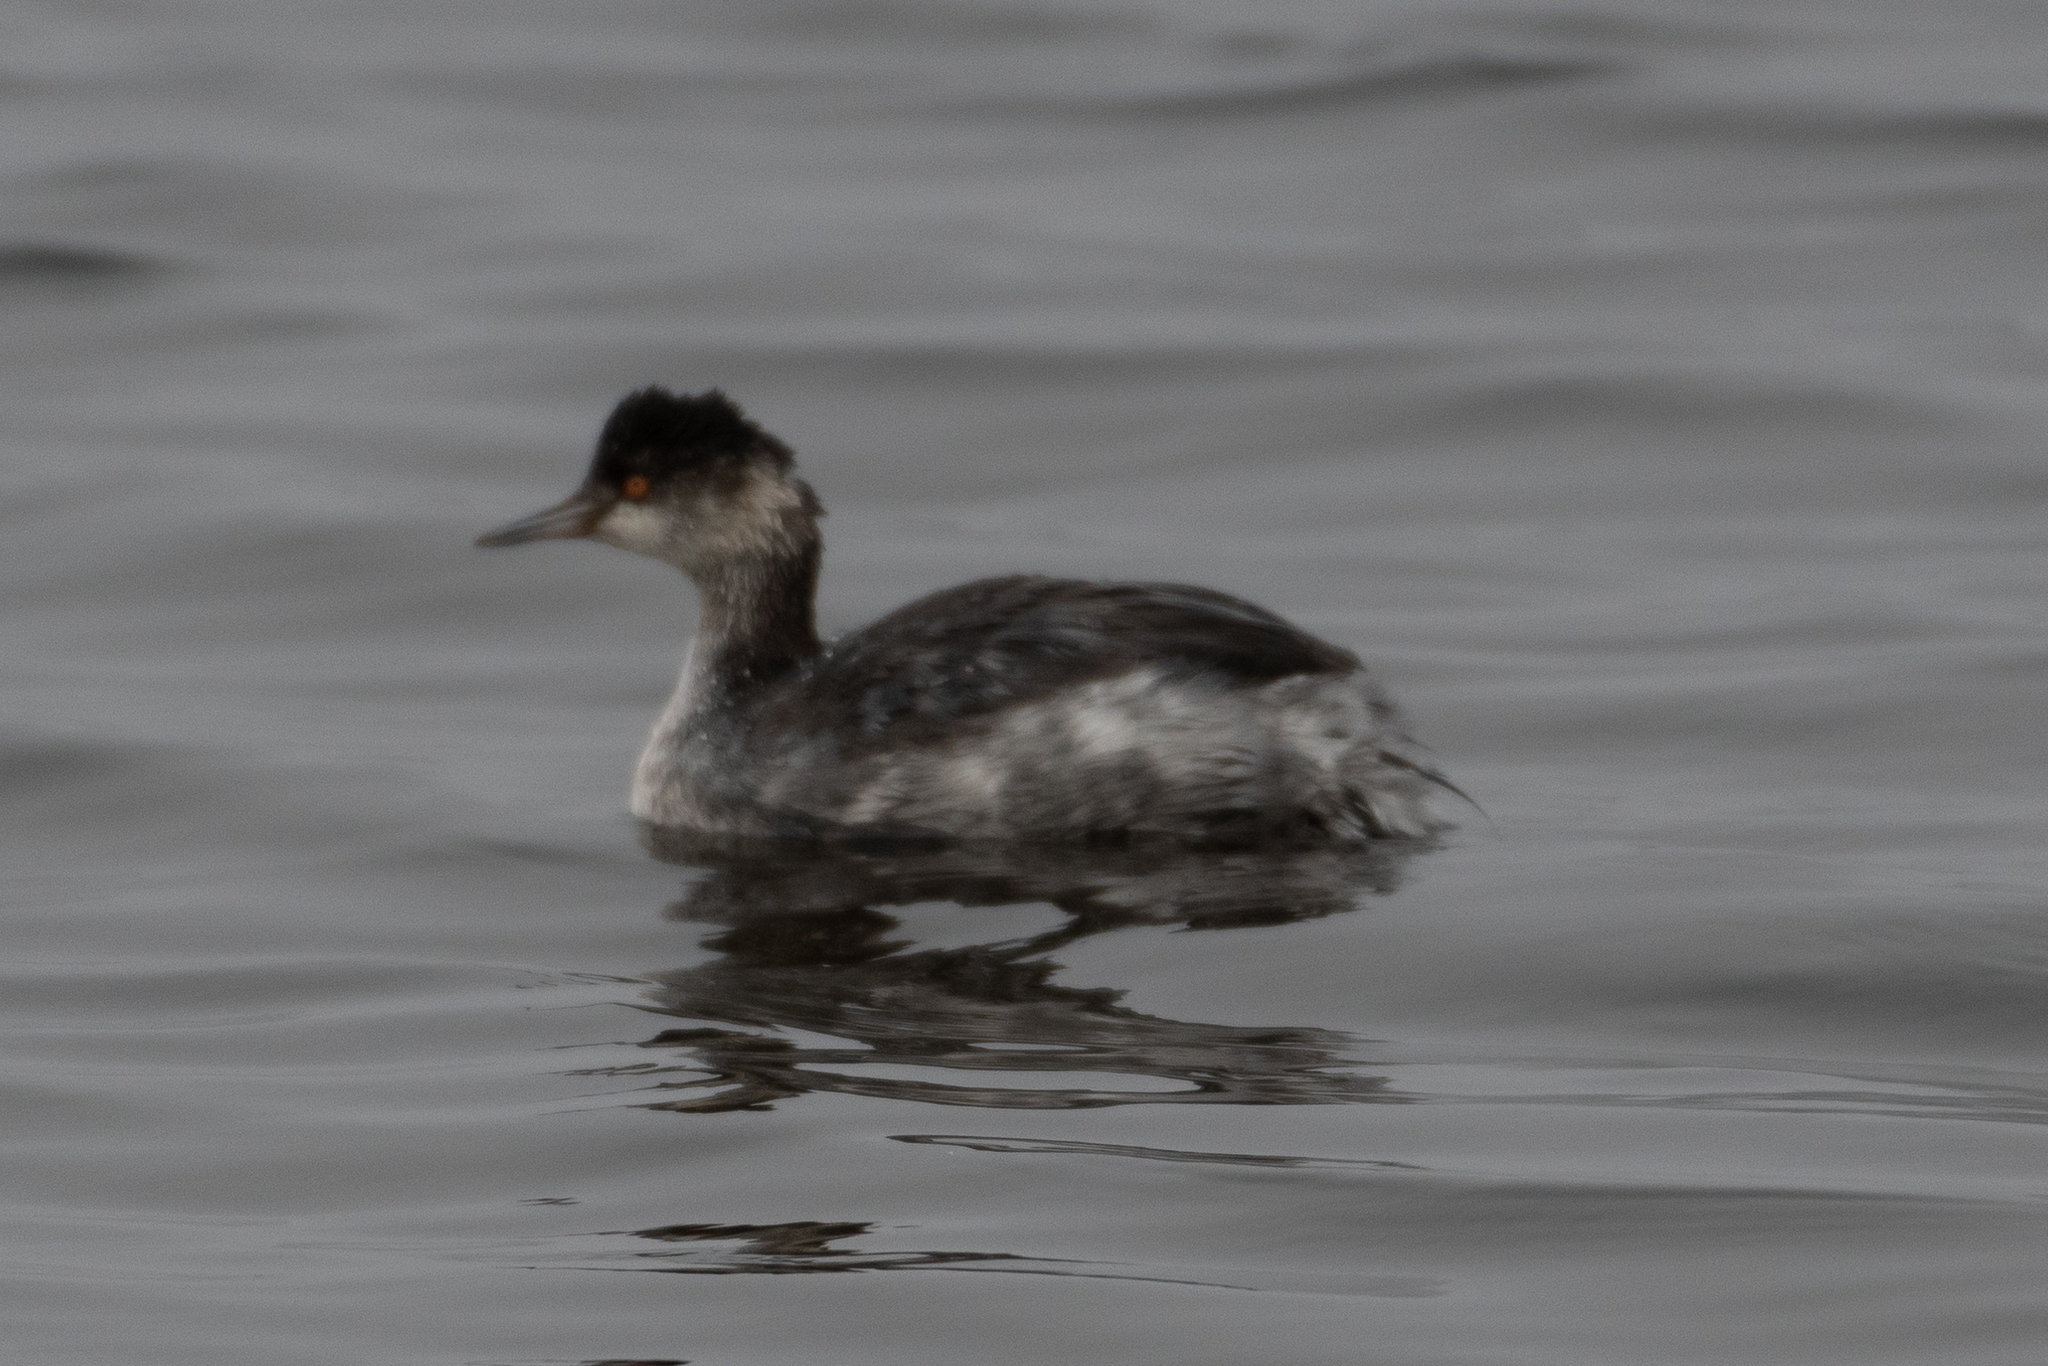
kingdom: Animalia
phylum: Chordata
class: Aves
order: Podicipediformes
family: Podicipedidae
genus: Podiceps
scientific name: Podiceps nigricollis
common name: Black-necked grebe
